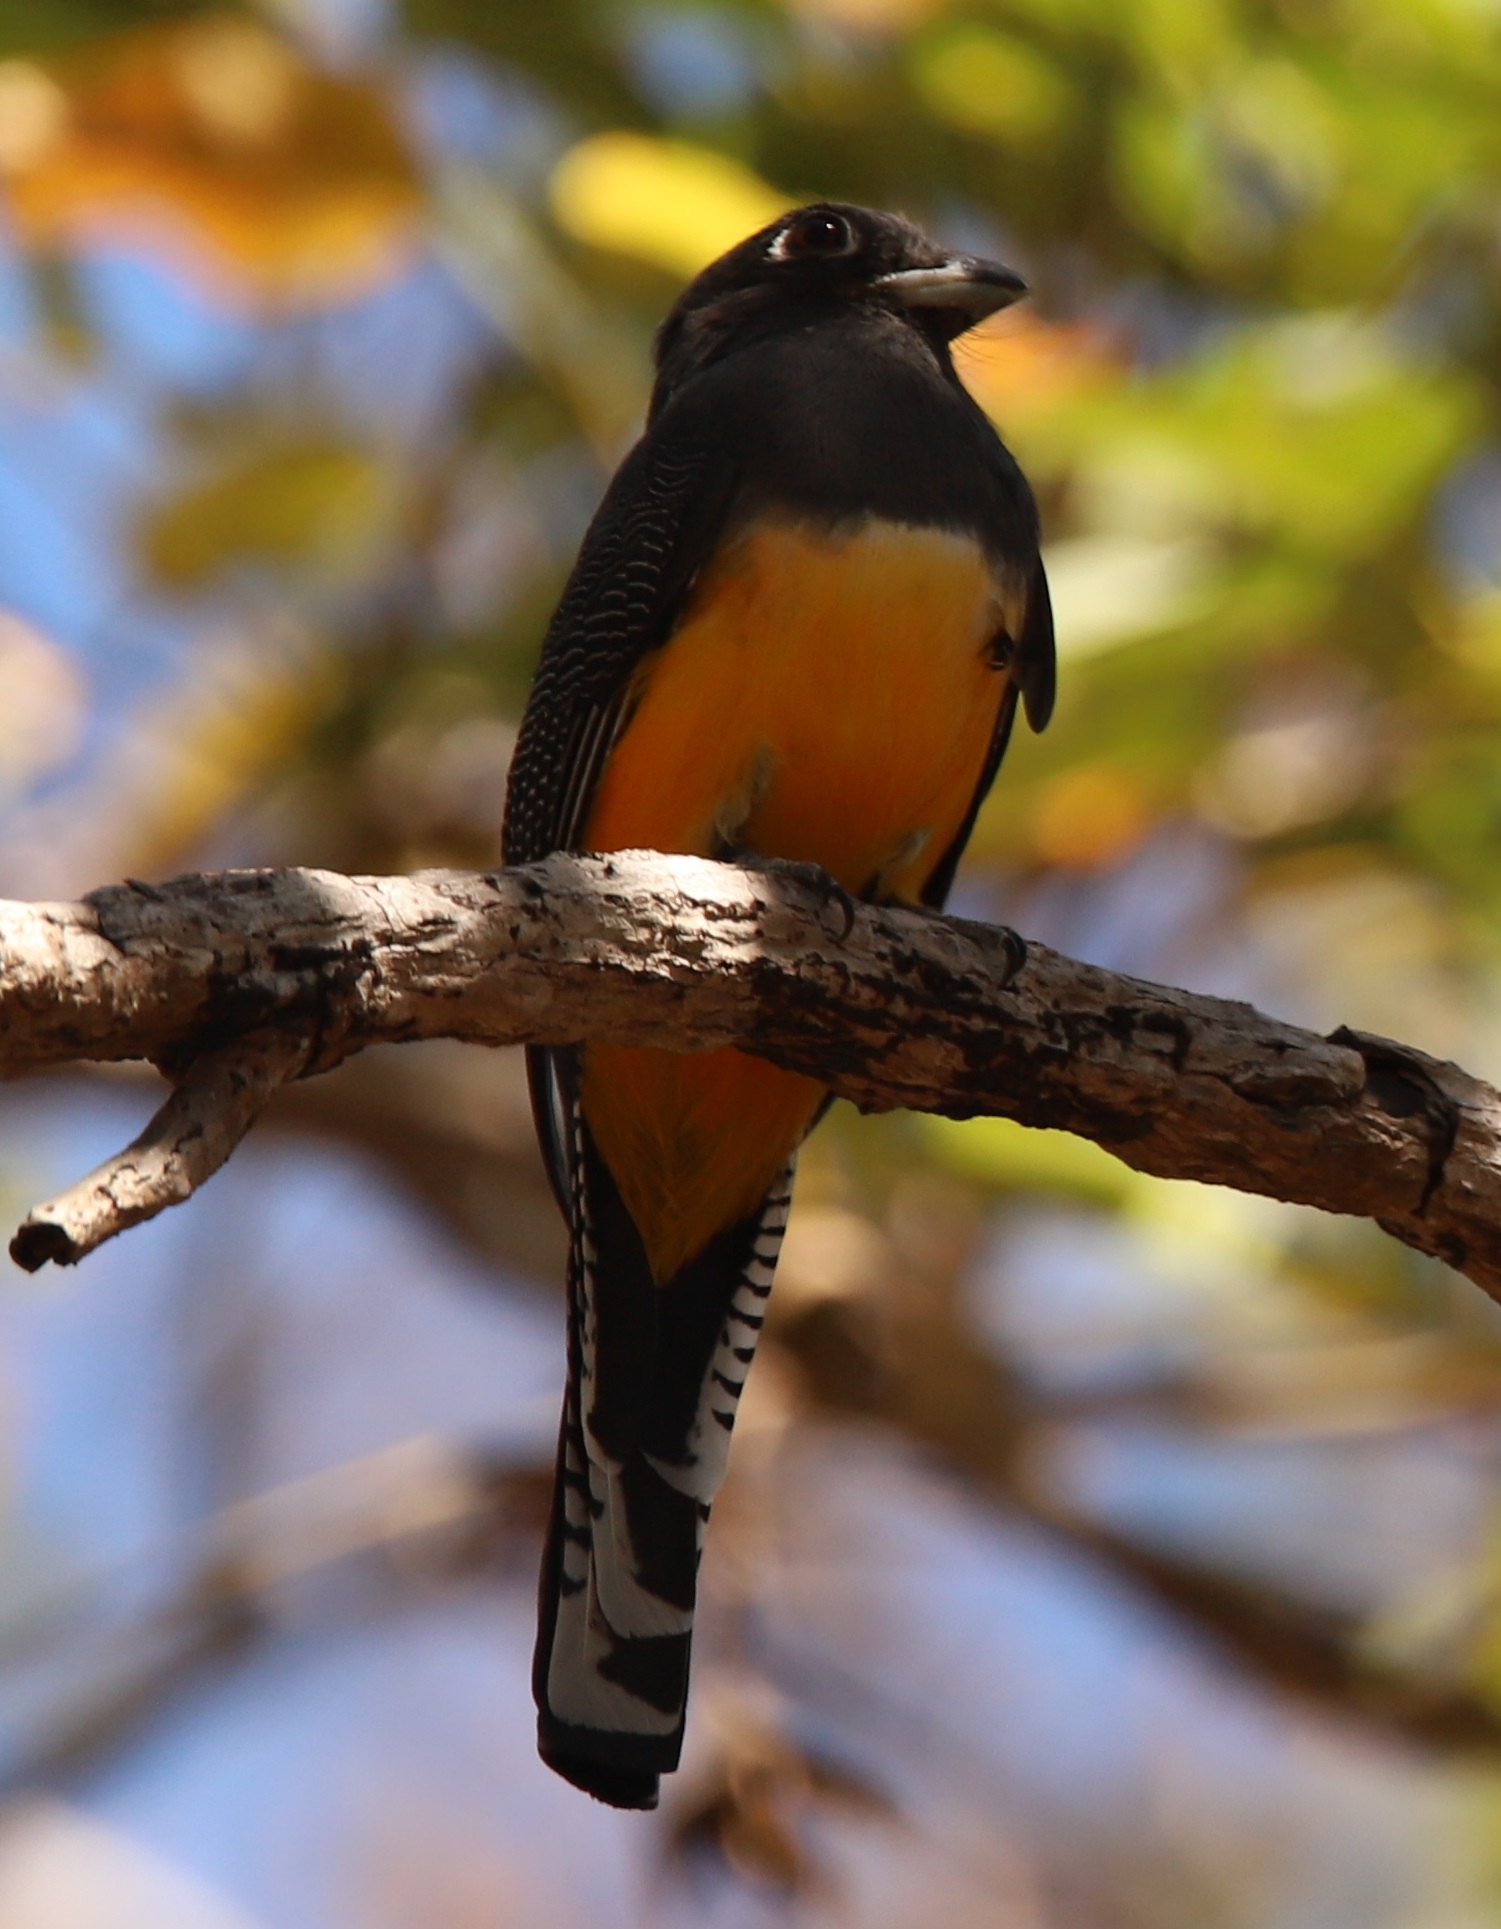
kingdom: Animalia
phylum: Chordata
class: Aves
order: Trogoniformes
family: Trogonidae
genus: Trogon
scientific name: Trogon caligatus
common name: Gartered trogon
